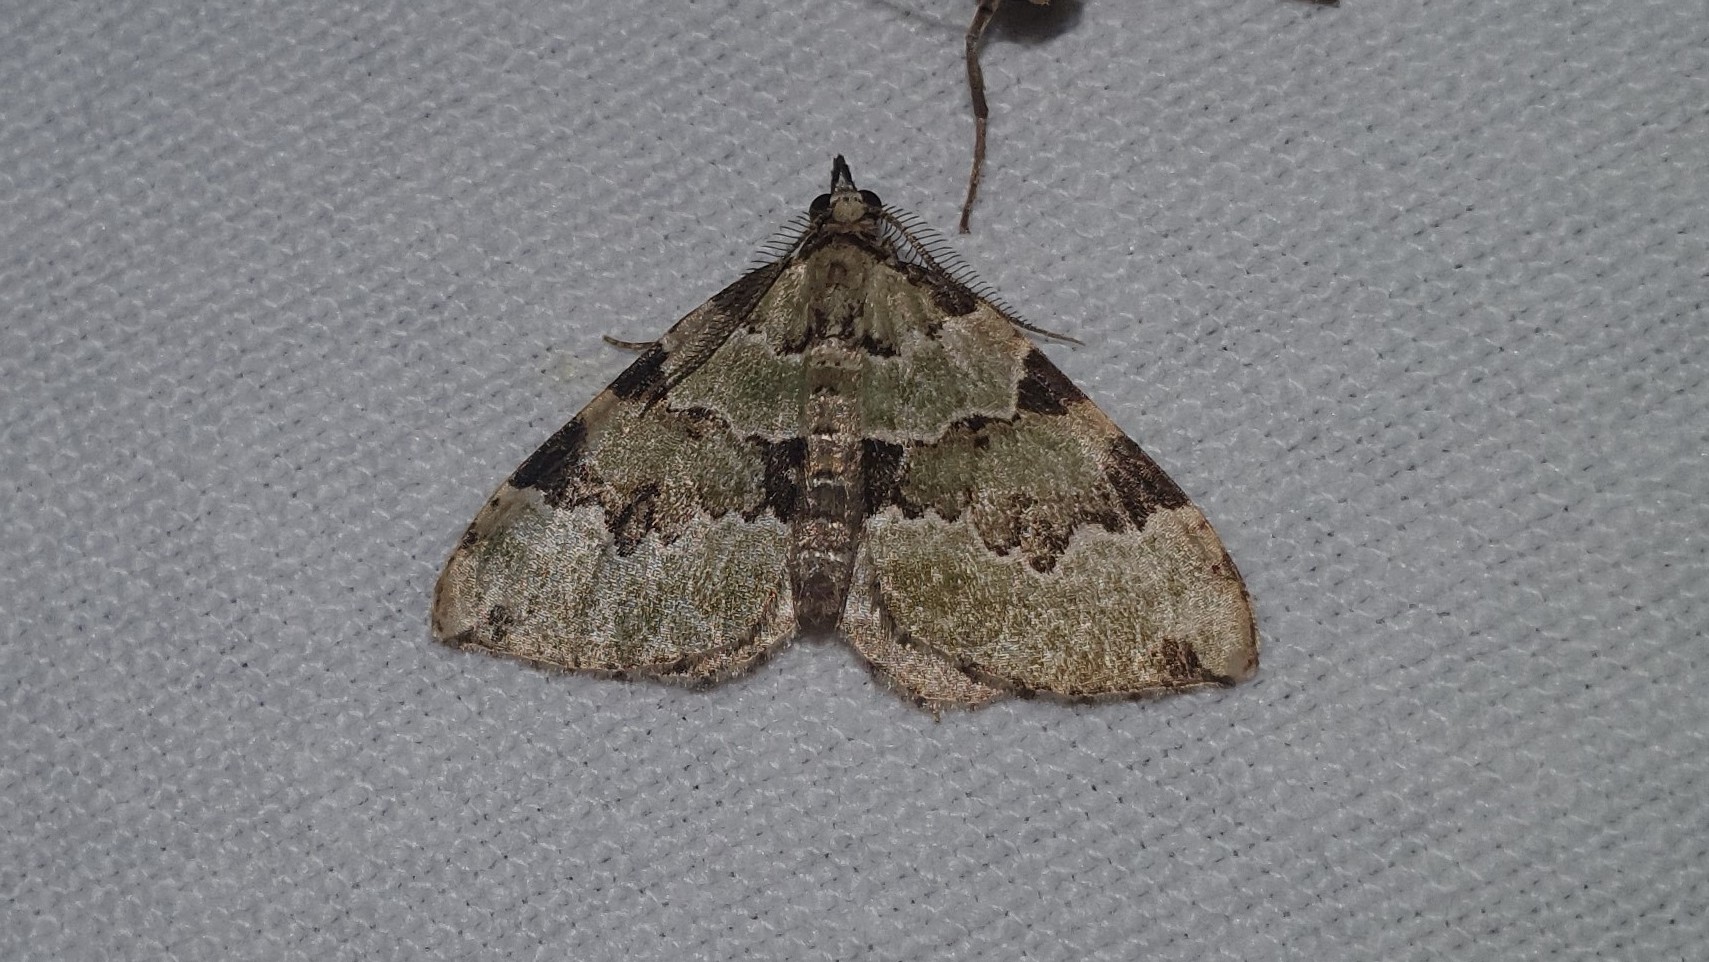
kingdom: Animalia
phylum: Arthropoda
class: Insecta
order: Lepidoptera
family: Geometridae
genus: Colostygia
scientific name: Colostygia pectinataria
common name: Green carpet
